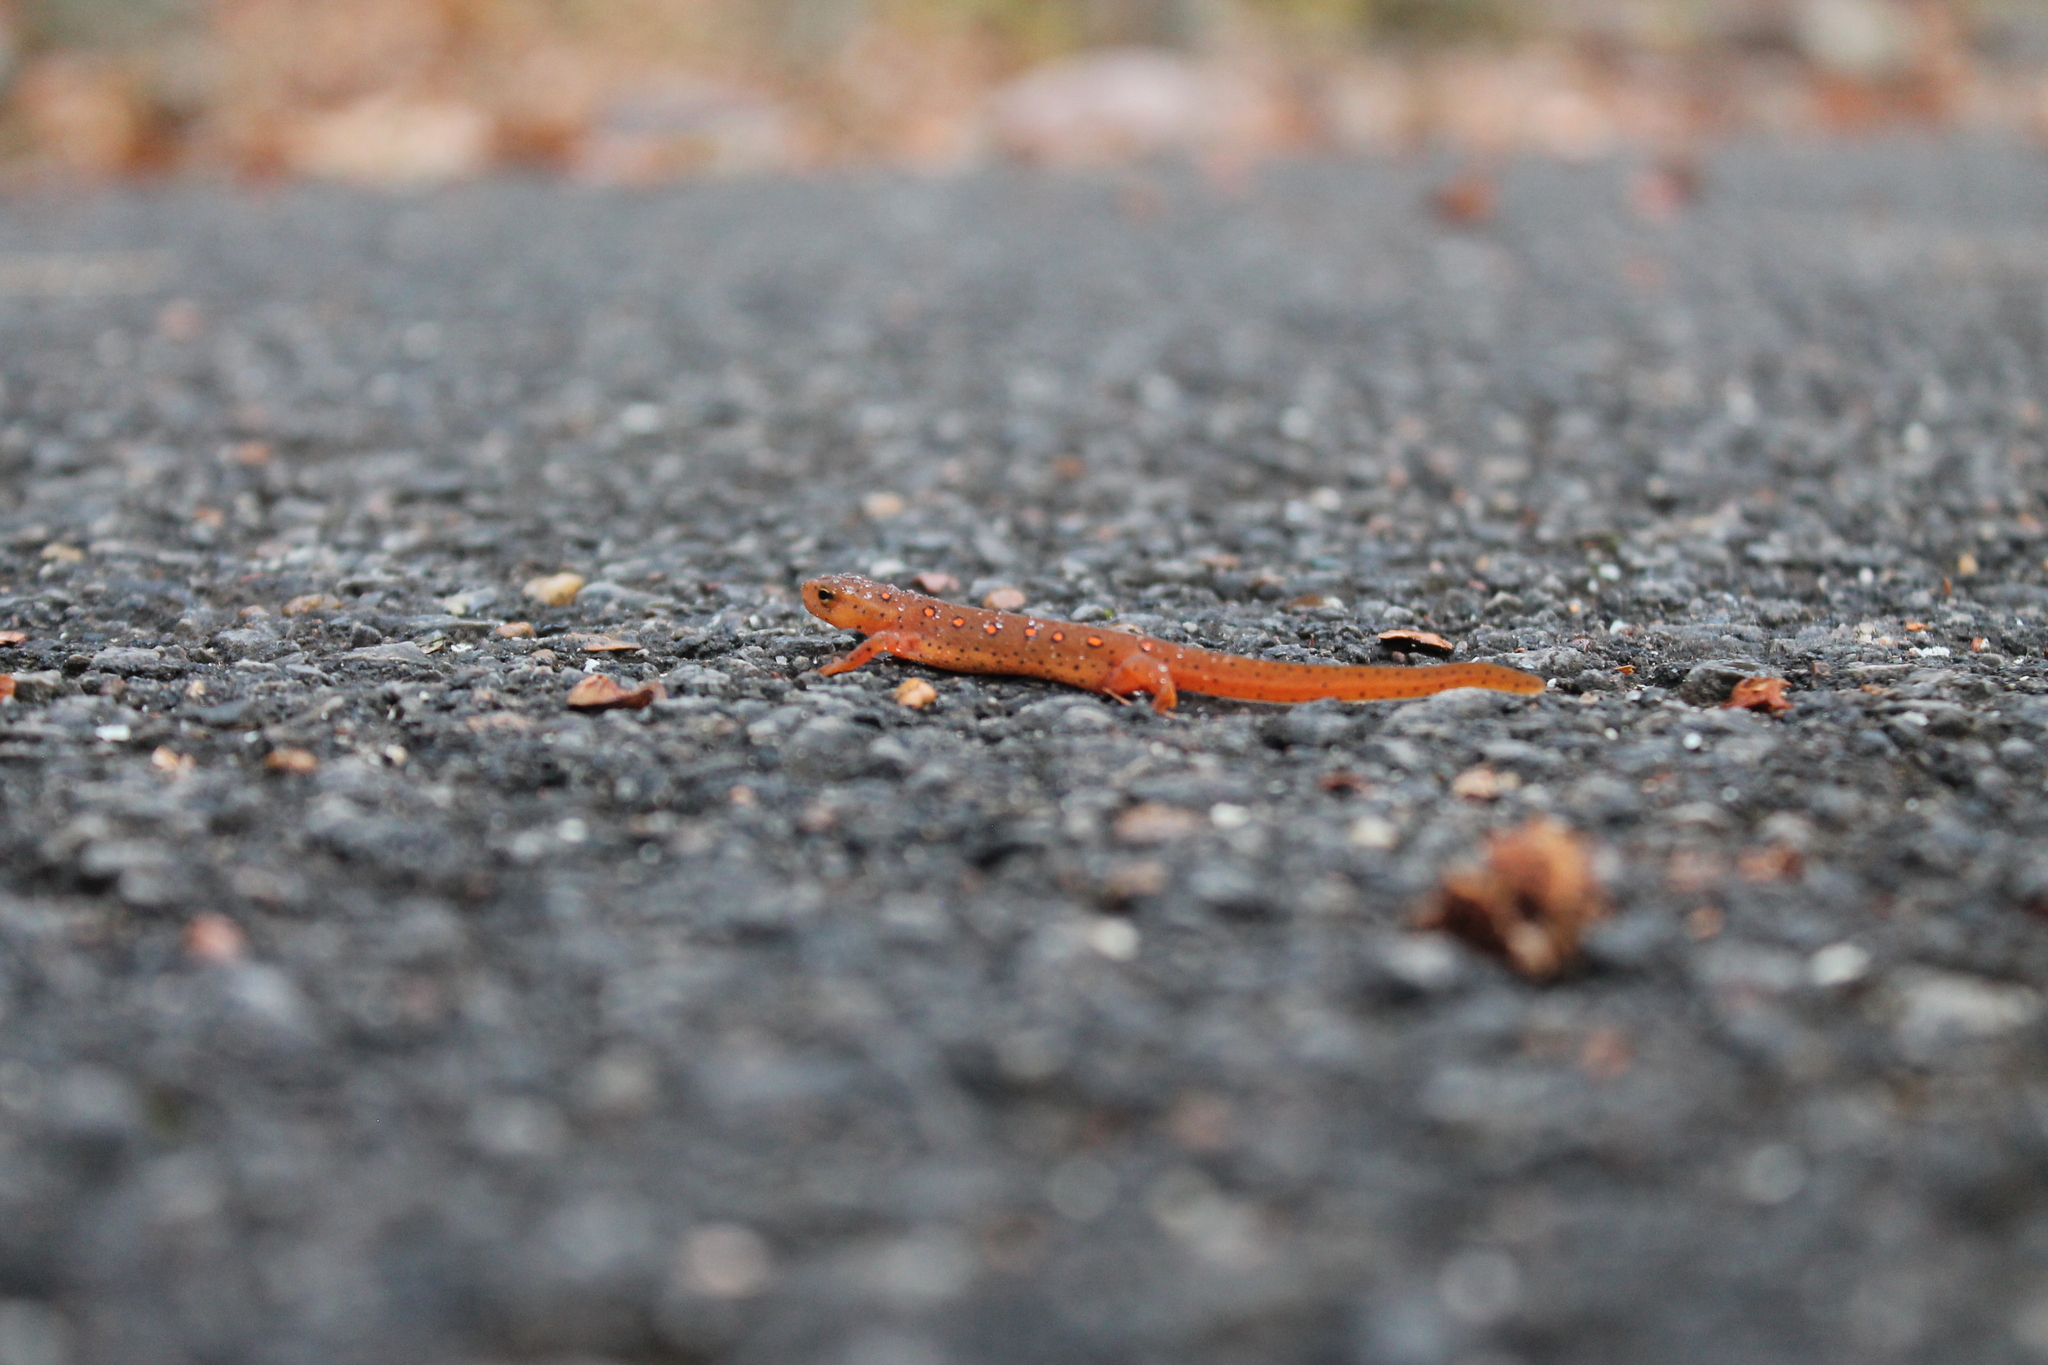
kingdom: Animalia
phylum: Chordata
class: Amphibia
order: Caudata
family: Salamandridae
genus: Notophthalmus
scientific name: Notophthalmus viridescens
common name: Eastern newt
